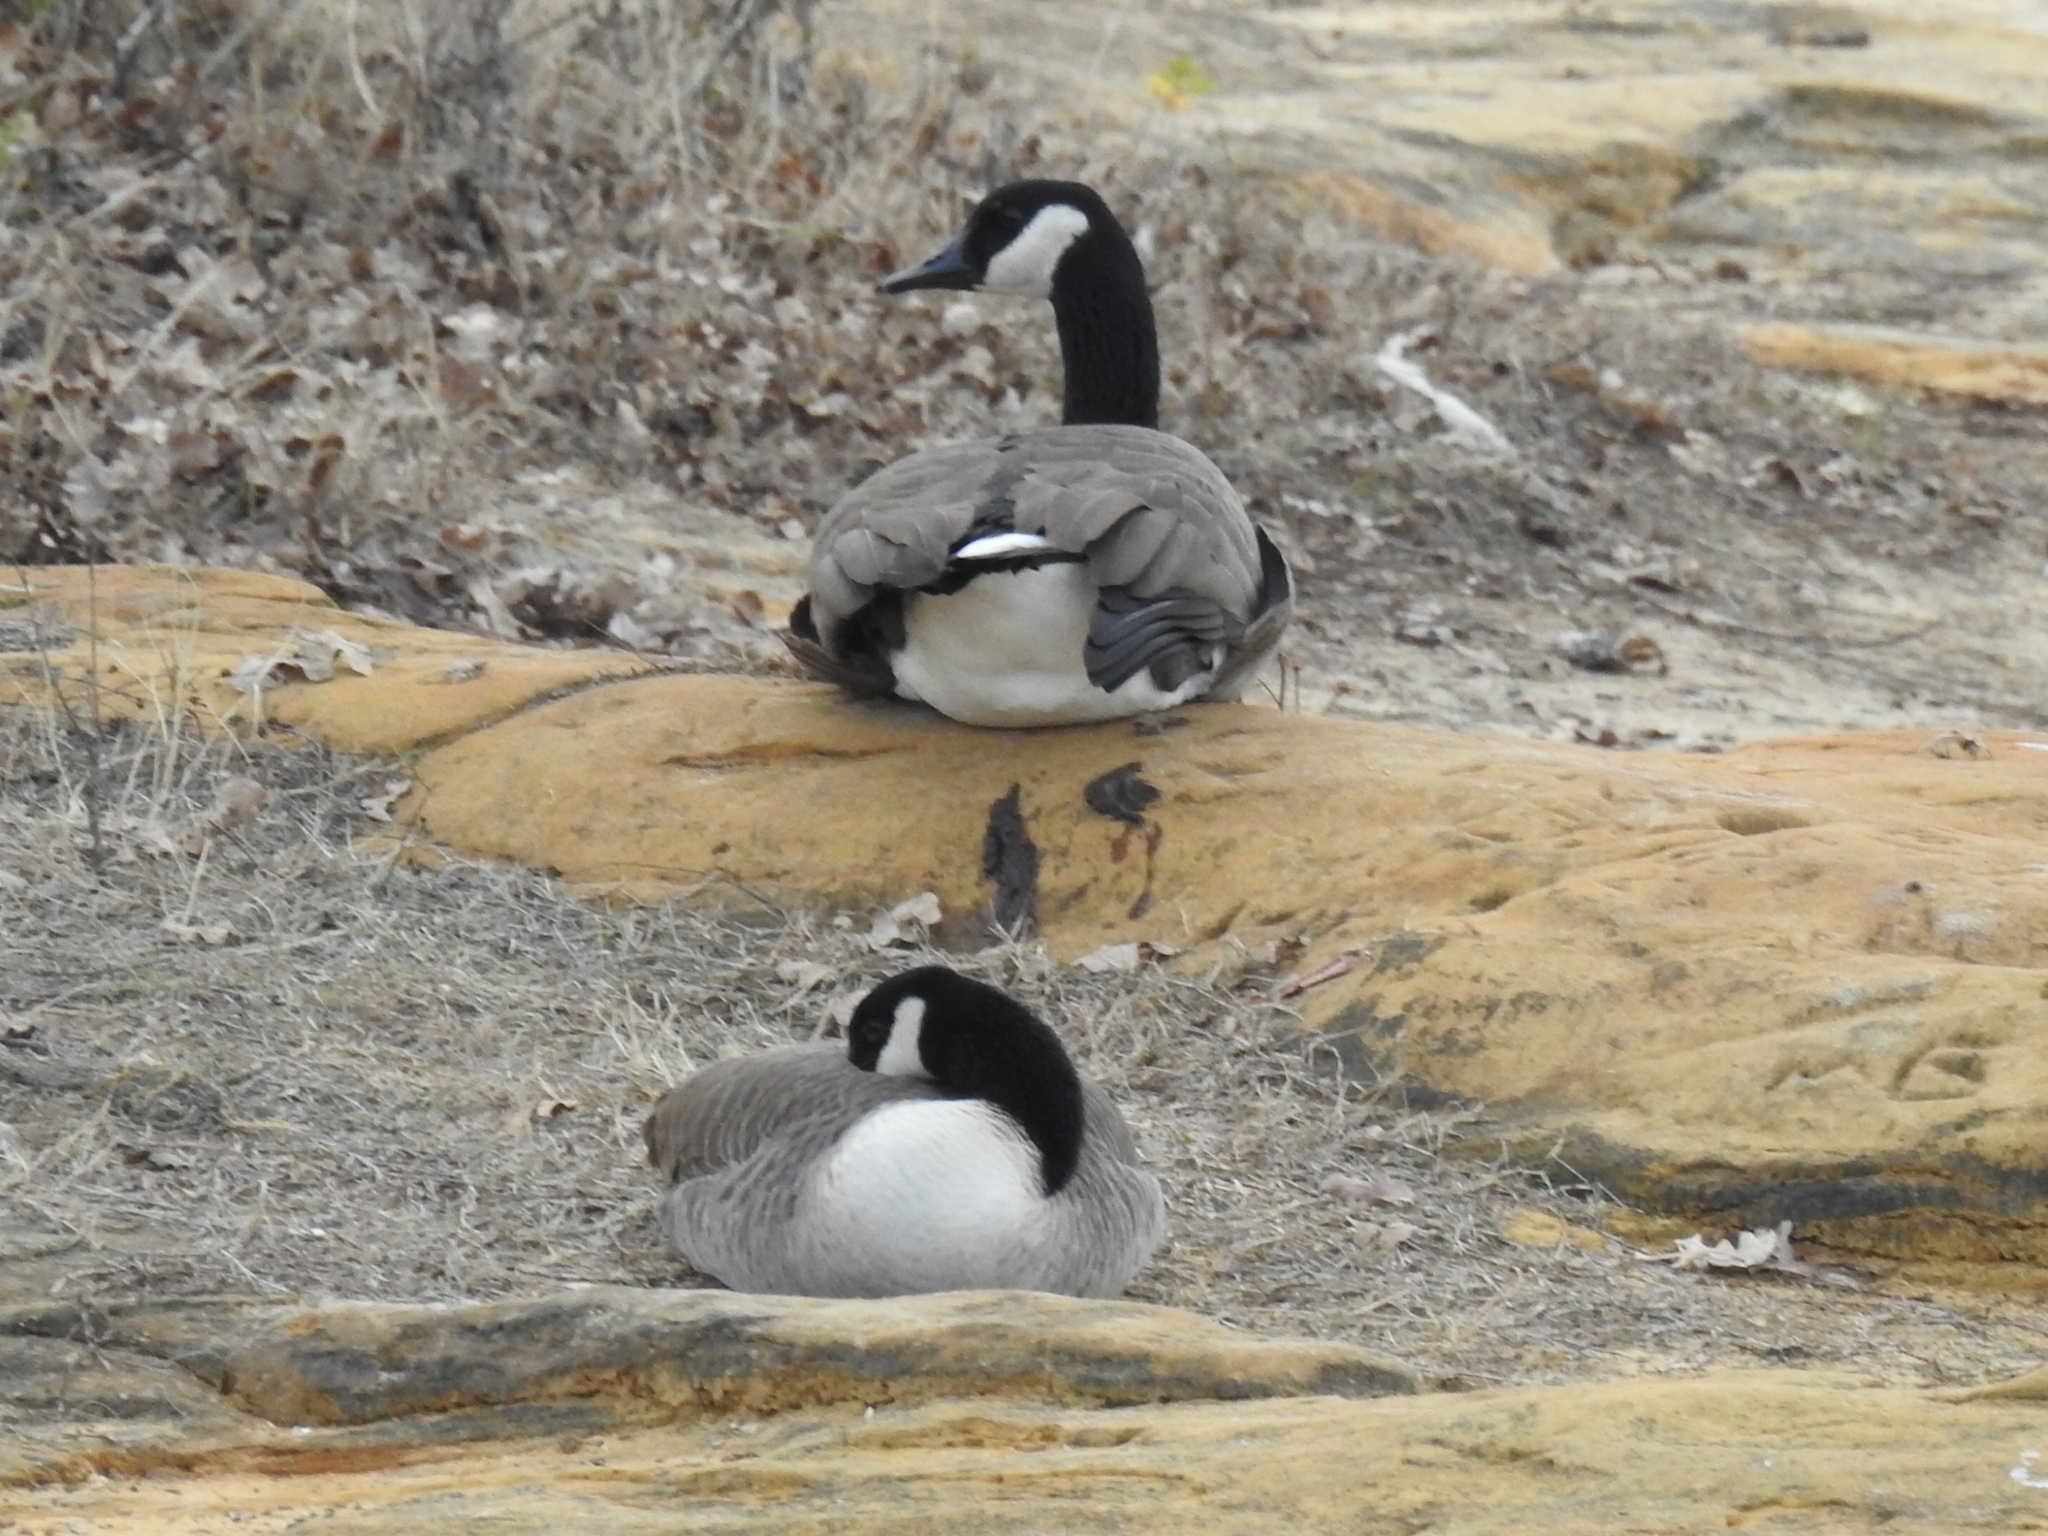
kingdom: Animalia
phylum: Chordata
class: Aves
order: Anseriformes
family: Anatidae
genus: Branta
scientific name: Branta canadensis
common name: Canada goose
